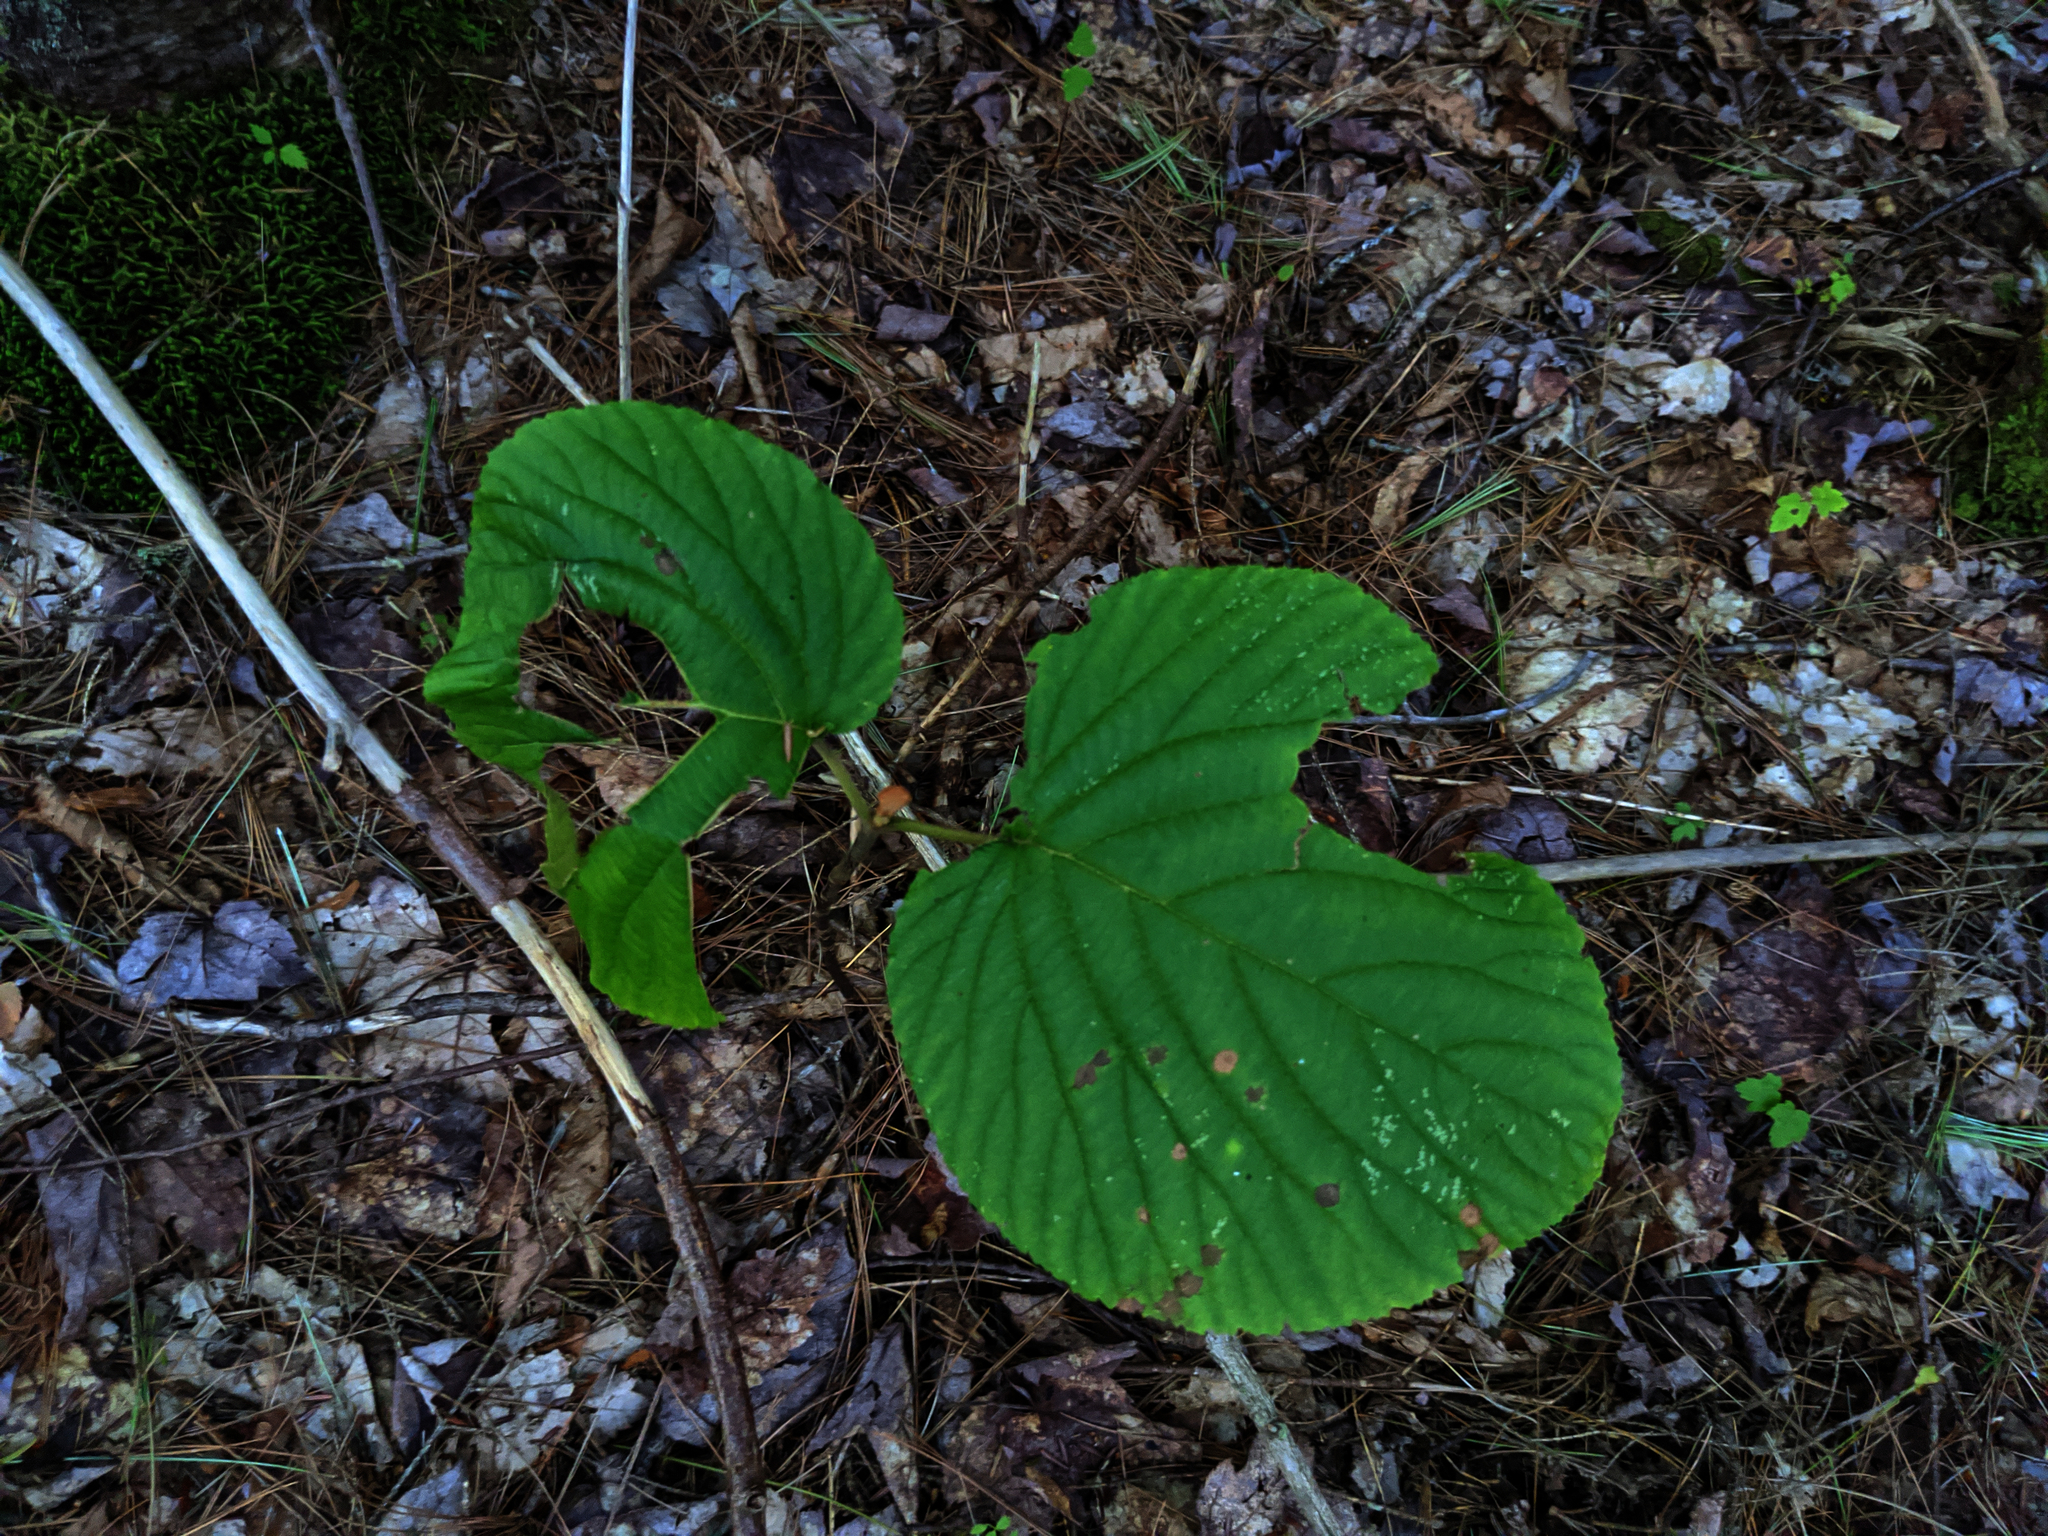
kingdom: Plantae
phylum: Tracheophyta
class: Magnoliopsida
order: Dipsacales
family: Viburnaceae
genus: Viburnum
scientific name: Viburnum lantanoides
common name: Hobblebush
